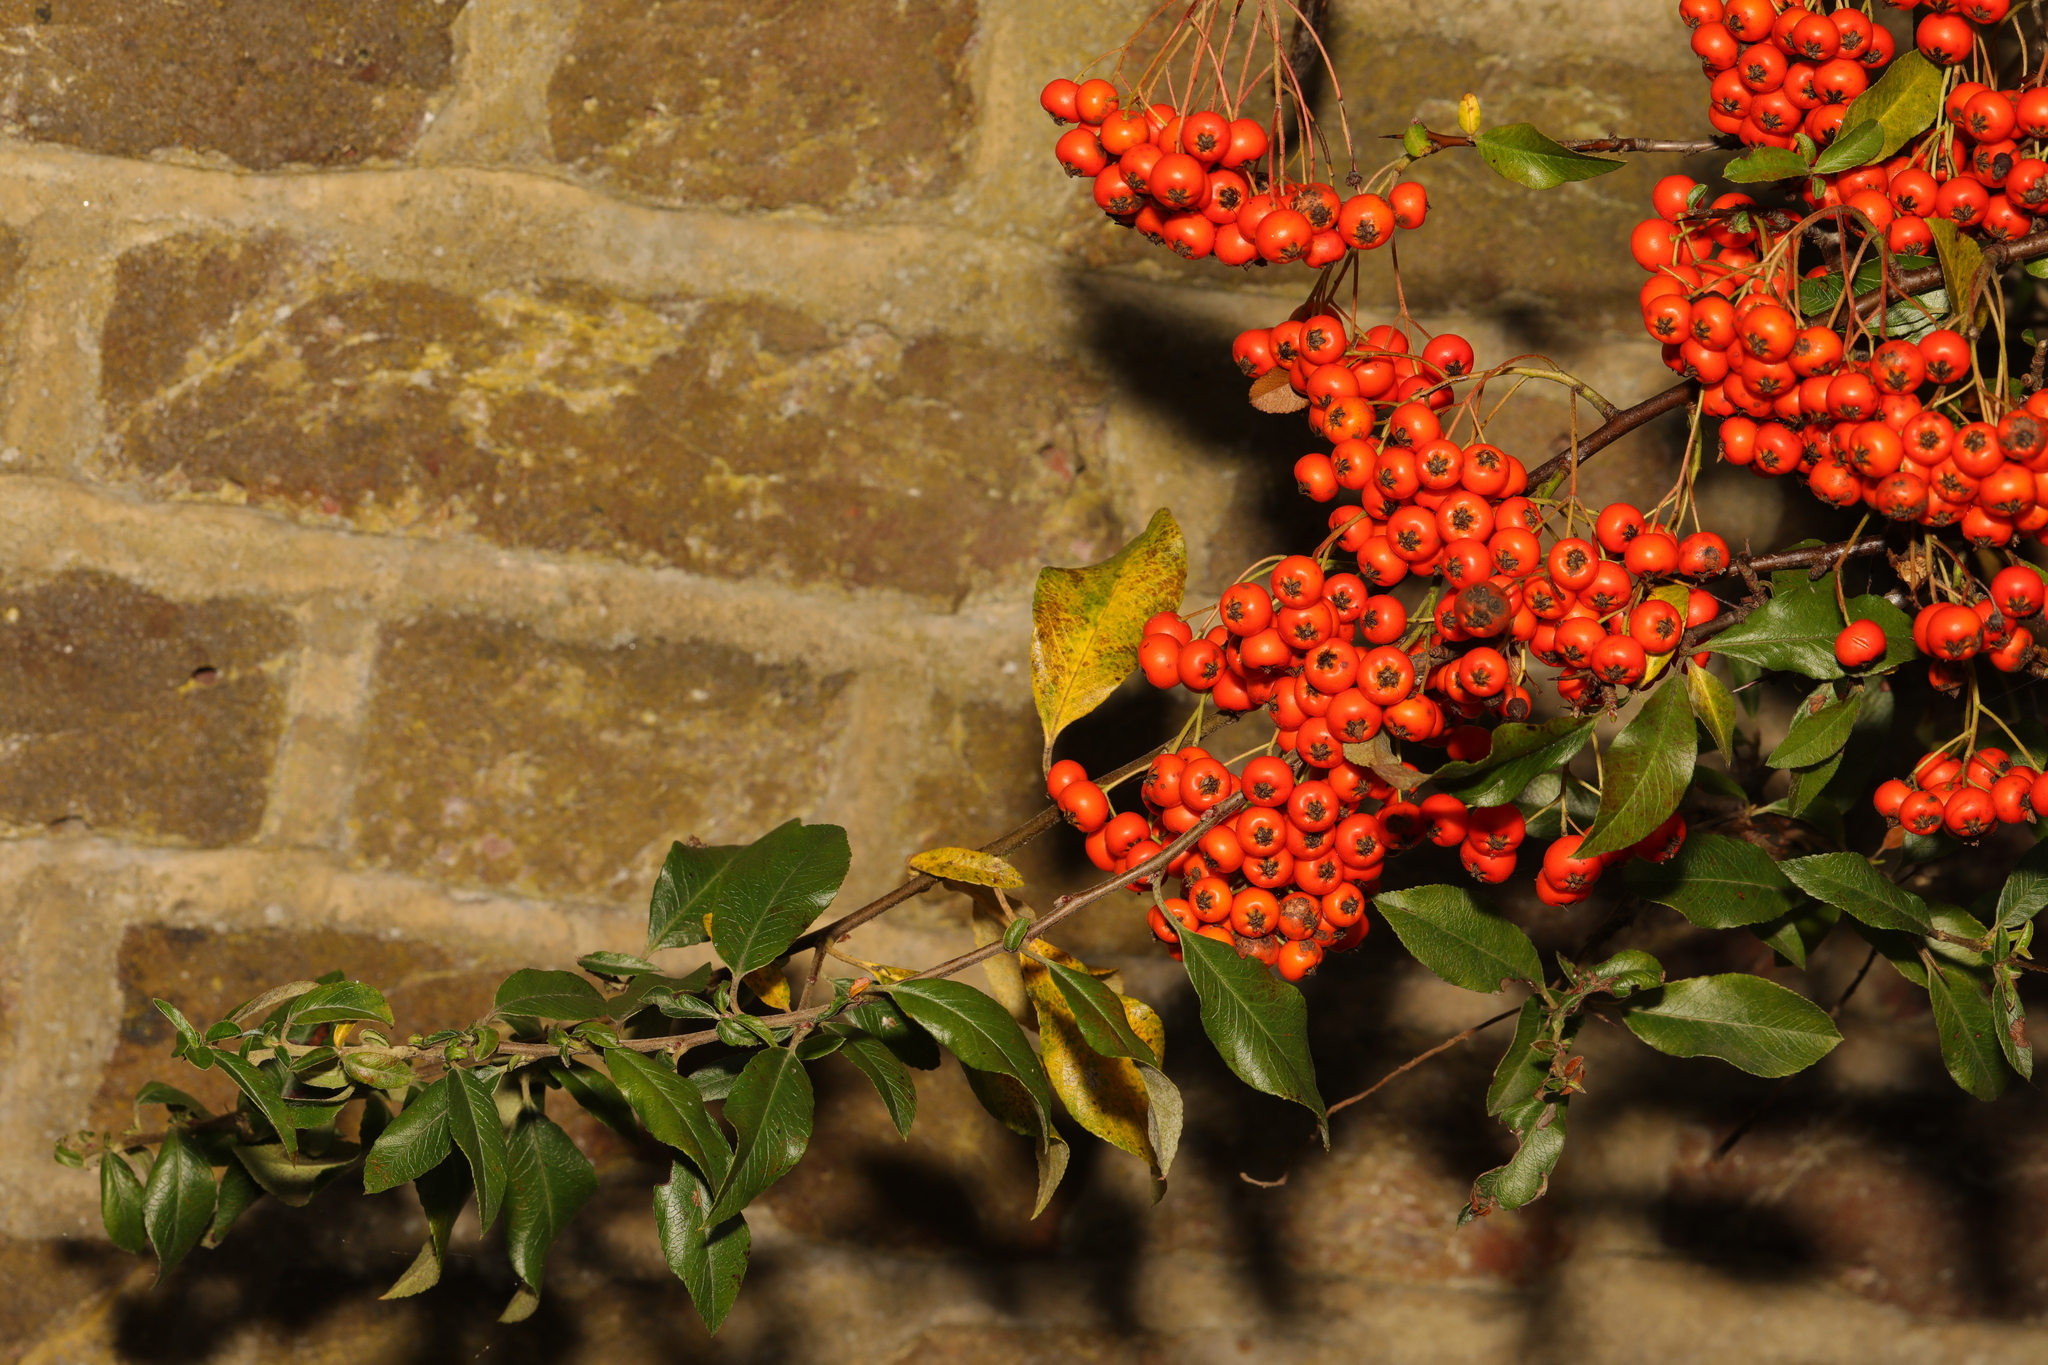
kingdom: Plantae
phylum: Tracheophyta
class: Magnoliopsida
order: Rosales
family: Rosaceae
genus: Pyracantha
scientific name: Pyracantha coccinea
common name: Firethorn
